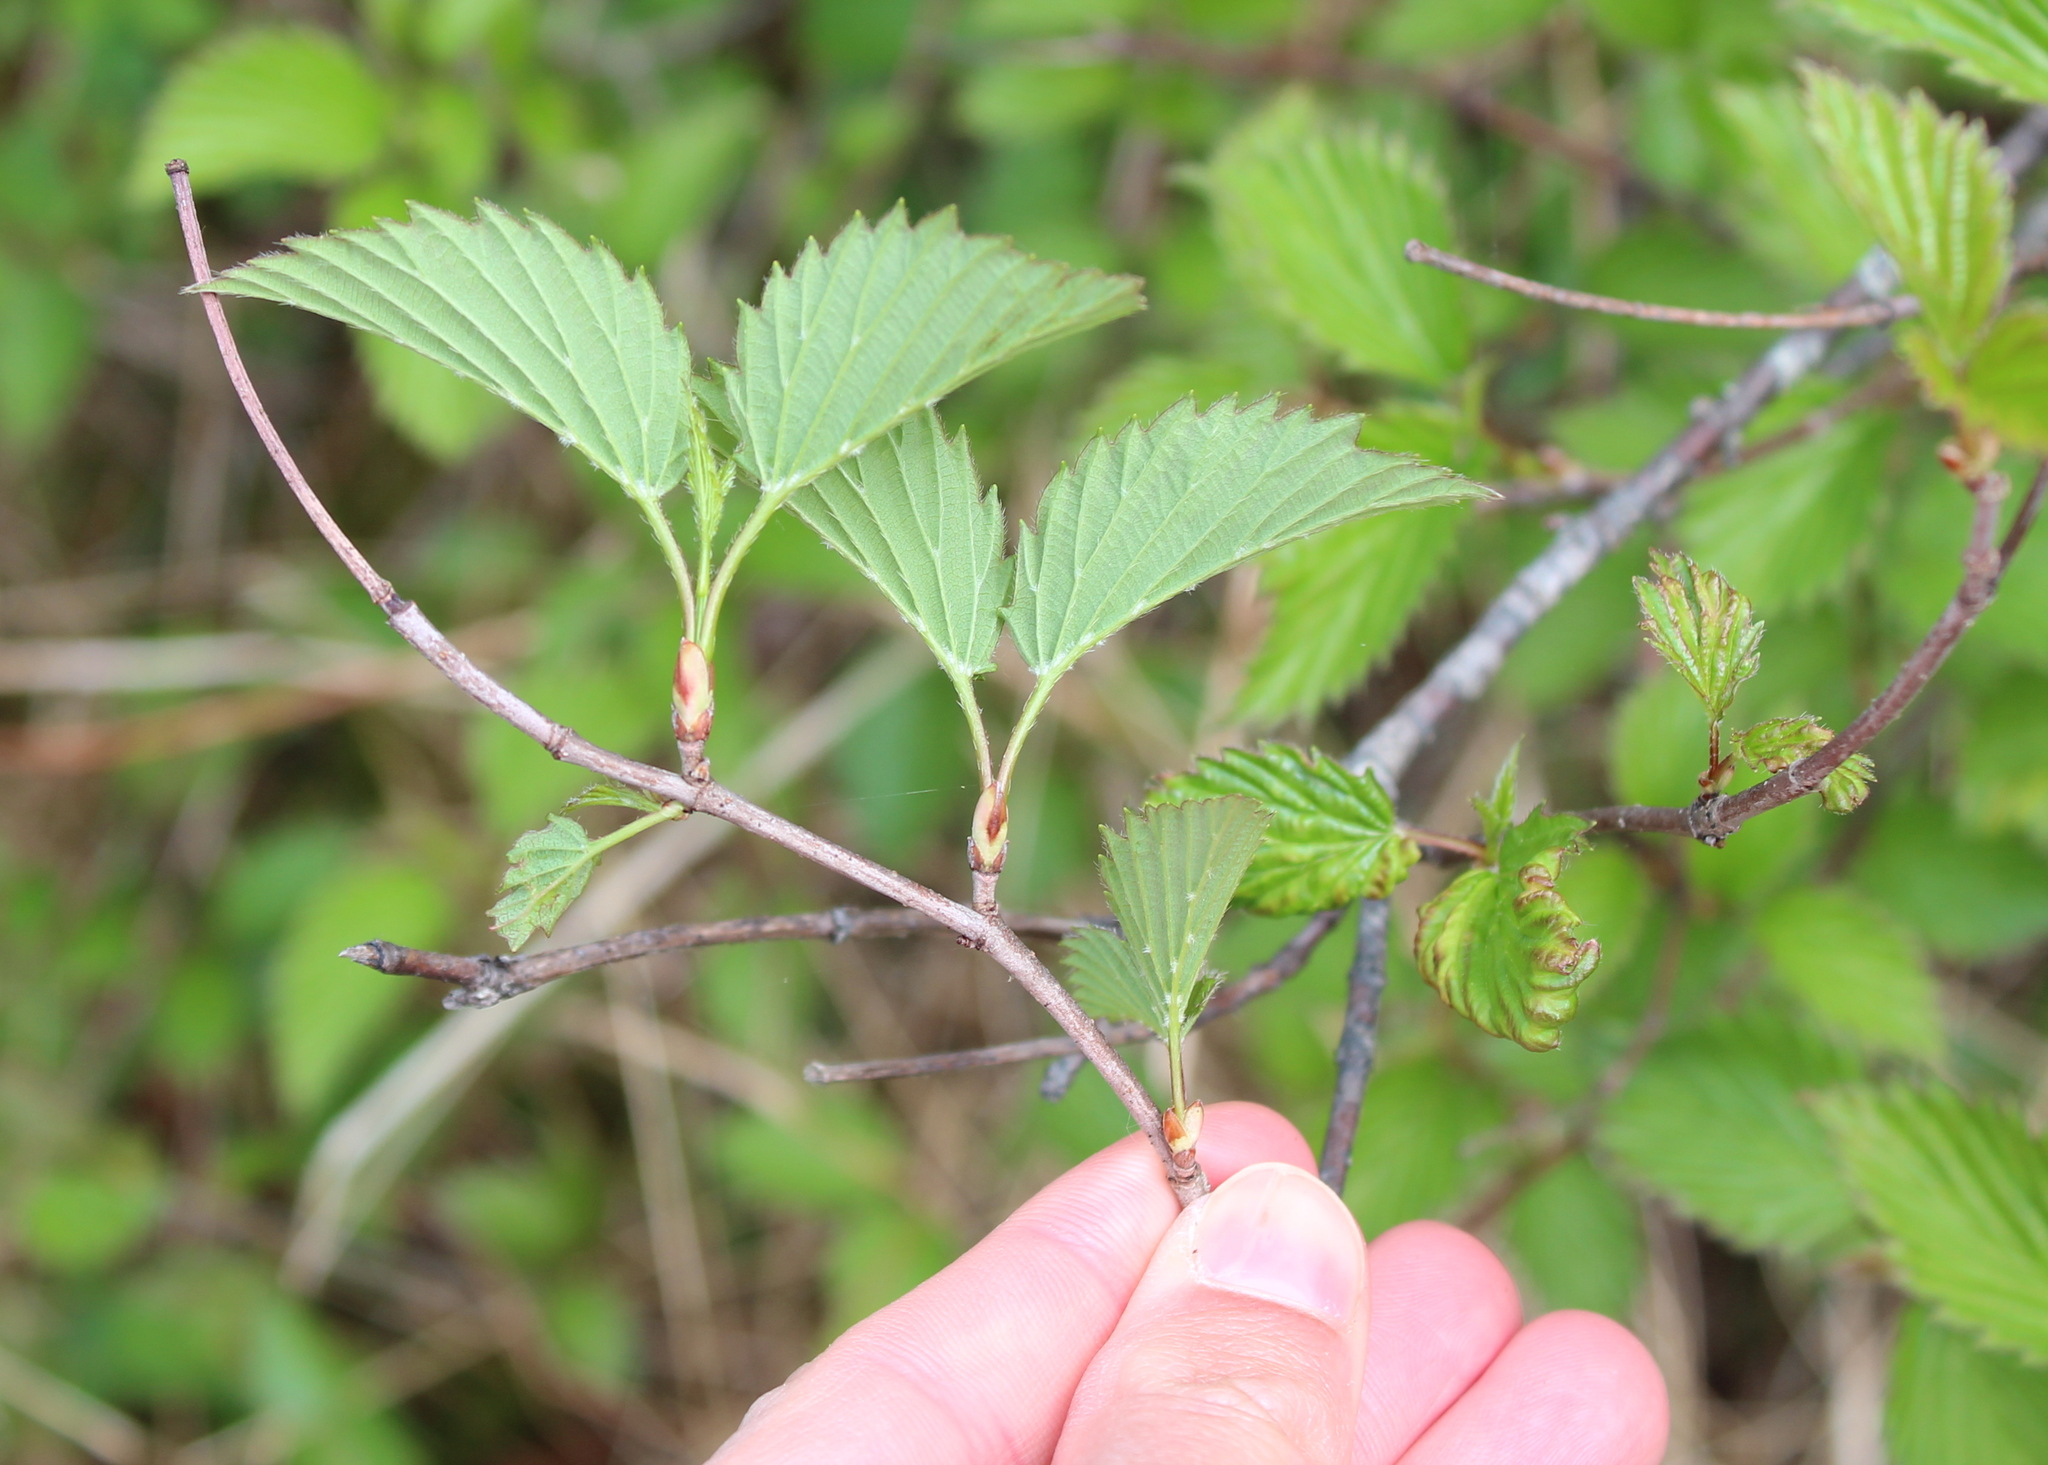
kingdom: Plantae
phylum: Tracheophyta
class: Magnoliopsida
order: Dipsacales
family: Viburnaceae
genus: Viburnum
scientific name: Viburnum dentatum
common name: Arrow-wood
